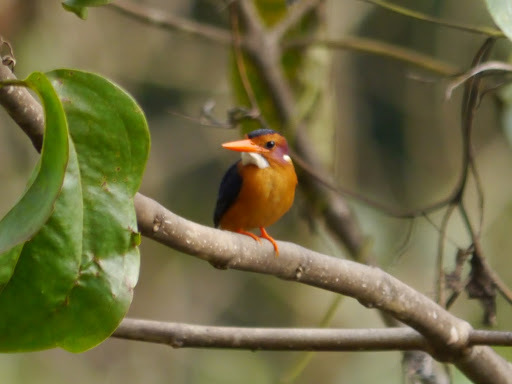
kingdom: Animalia
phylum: Chordata
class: Aves
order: Coraciiformes
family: Alcedinidae
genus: Ispidina
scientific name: Ispidina picta
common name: African pygmy-kingfisher
